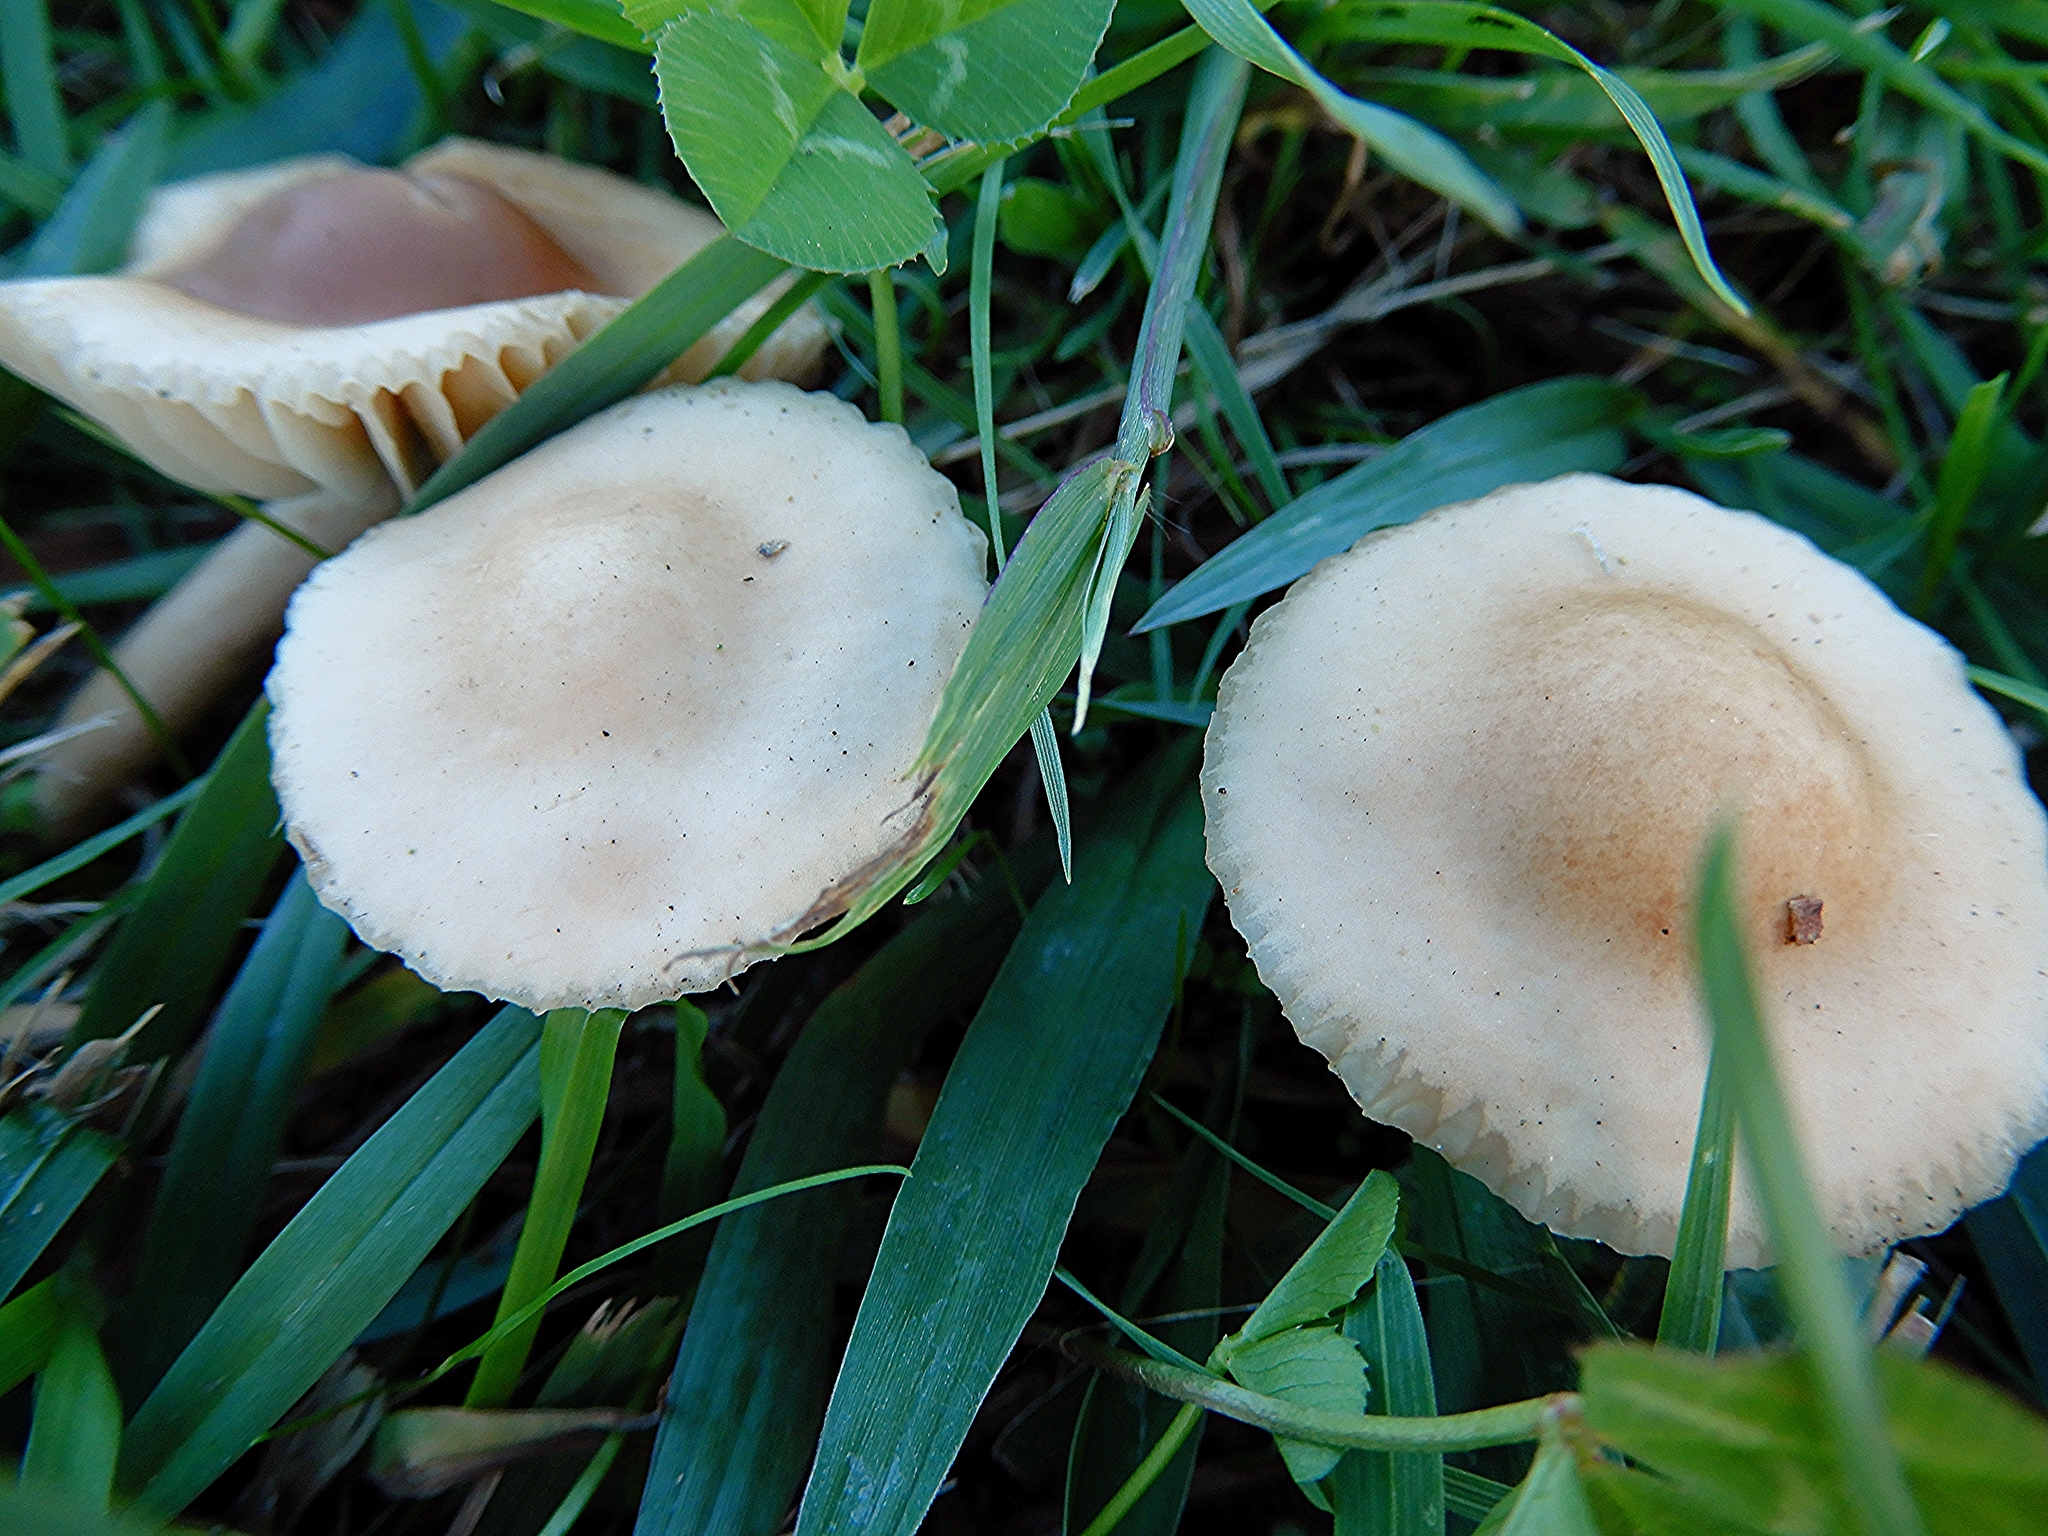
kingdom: Fungi
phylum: Basidiomycota
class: Agaricomycetes
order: Agaricales
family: Marasmiaceae
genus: Marasmius
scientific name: Marasmius oreades
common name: Fairy ring champignon
